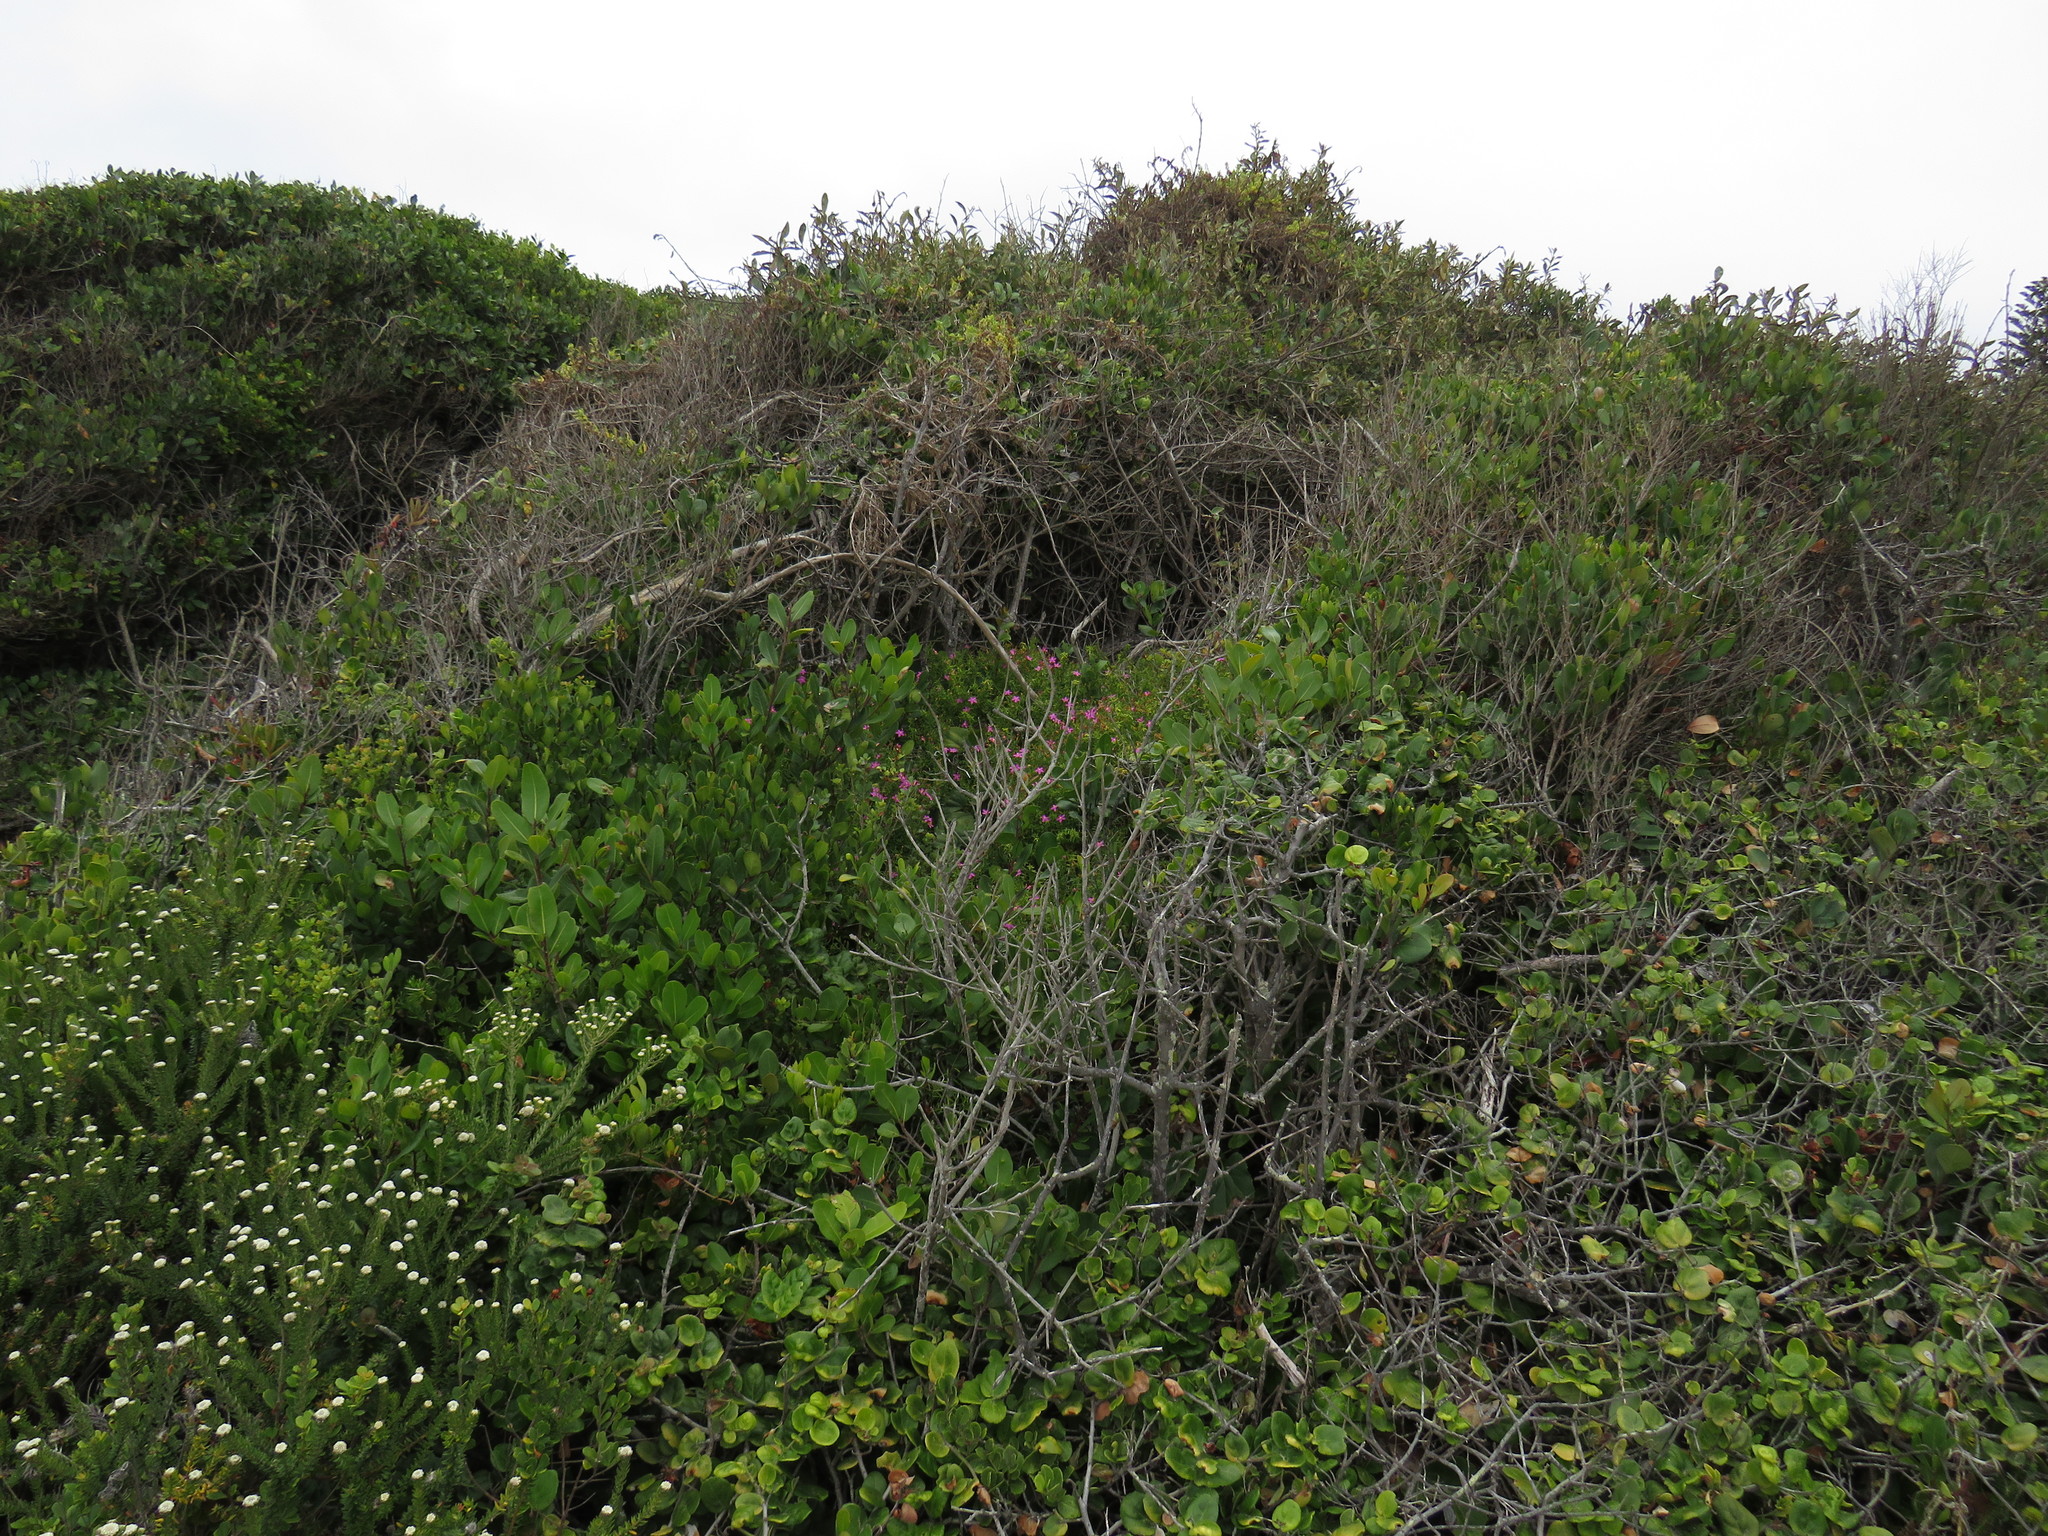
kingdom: Plantae
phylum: Tracheophyta
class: Magnoliopsida
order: Gentianales
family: Gentianaceae
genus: Chironia
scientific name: Chironia baccifera
